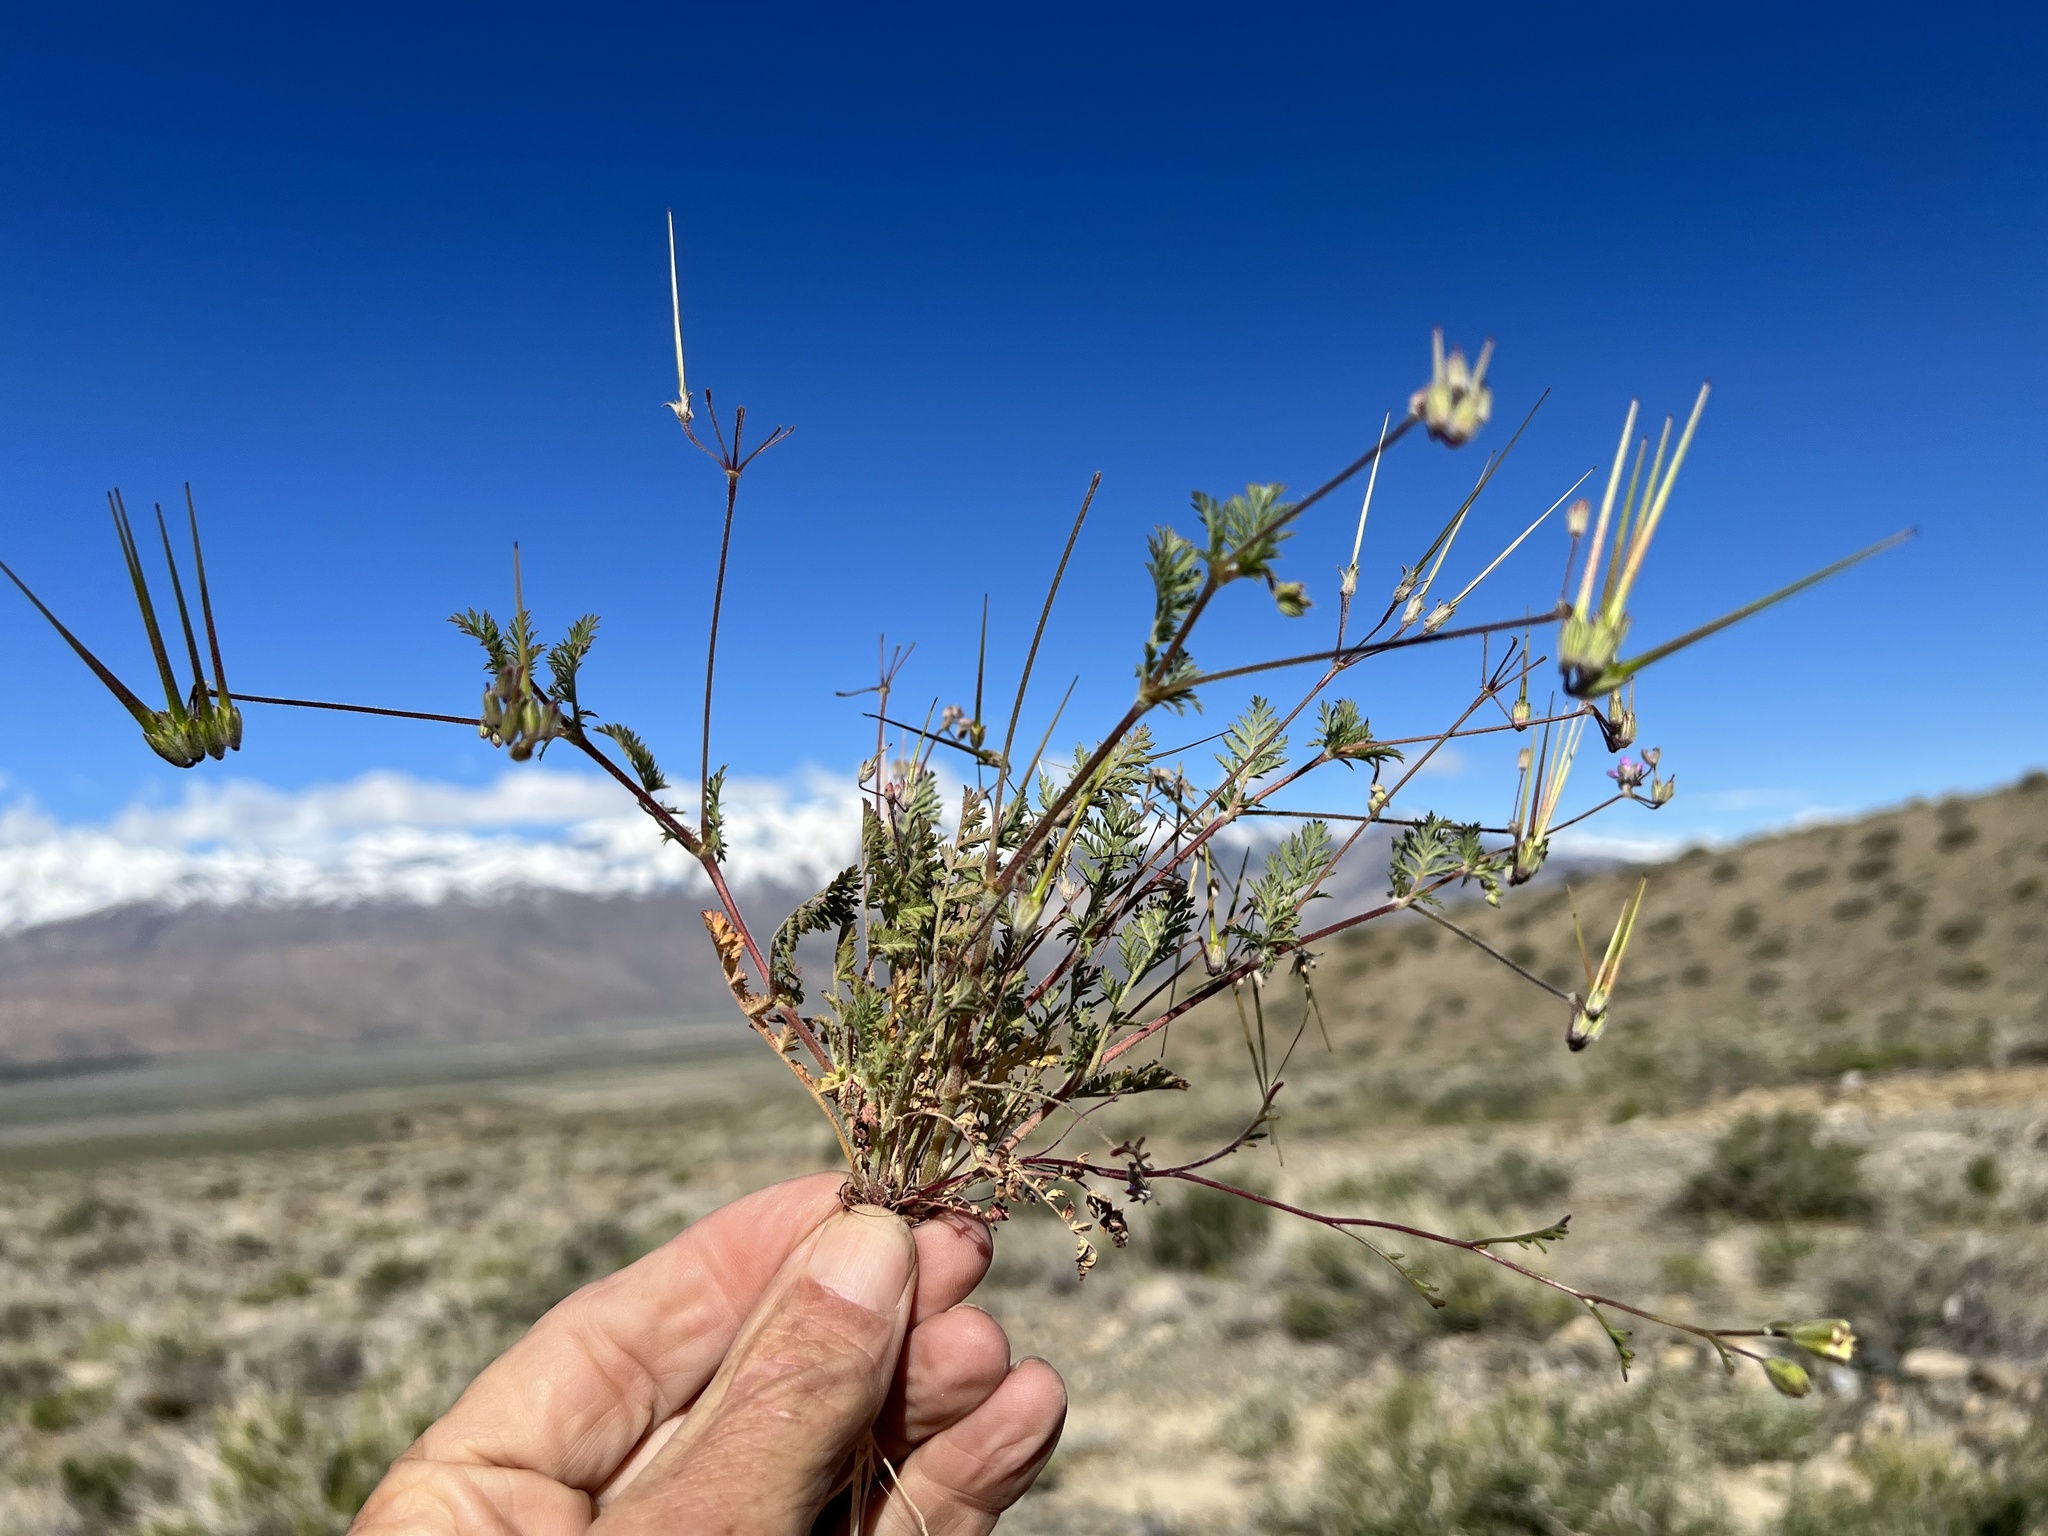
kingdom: Plantae
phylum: Tracheophyta
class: Magnoliopsida
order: Geraniales
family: Geraniaceae
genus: Erodium
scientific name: Erodium cicutarium
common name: Common stork's-bill
